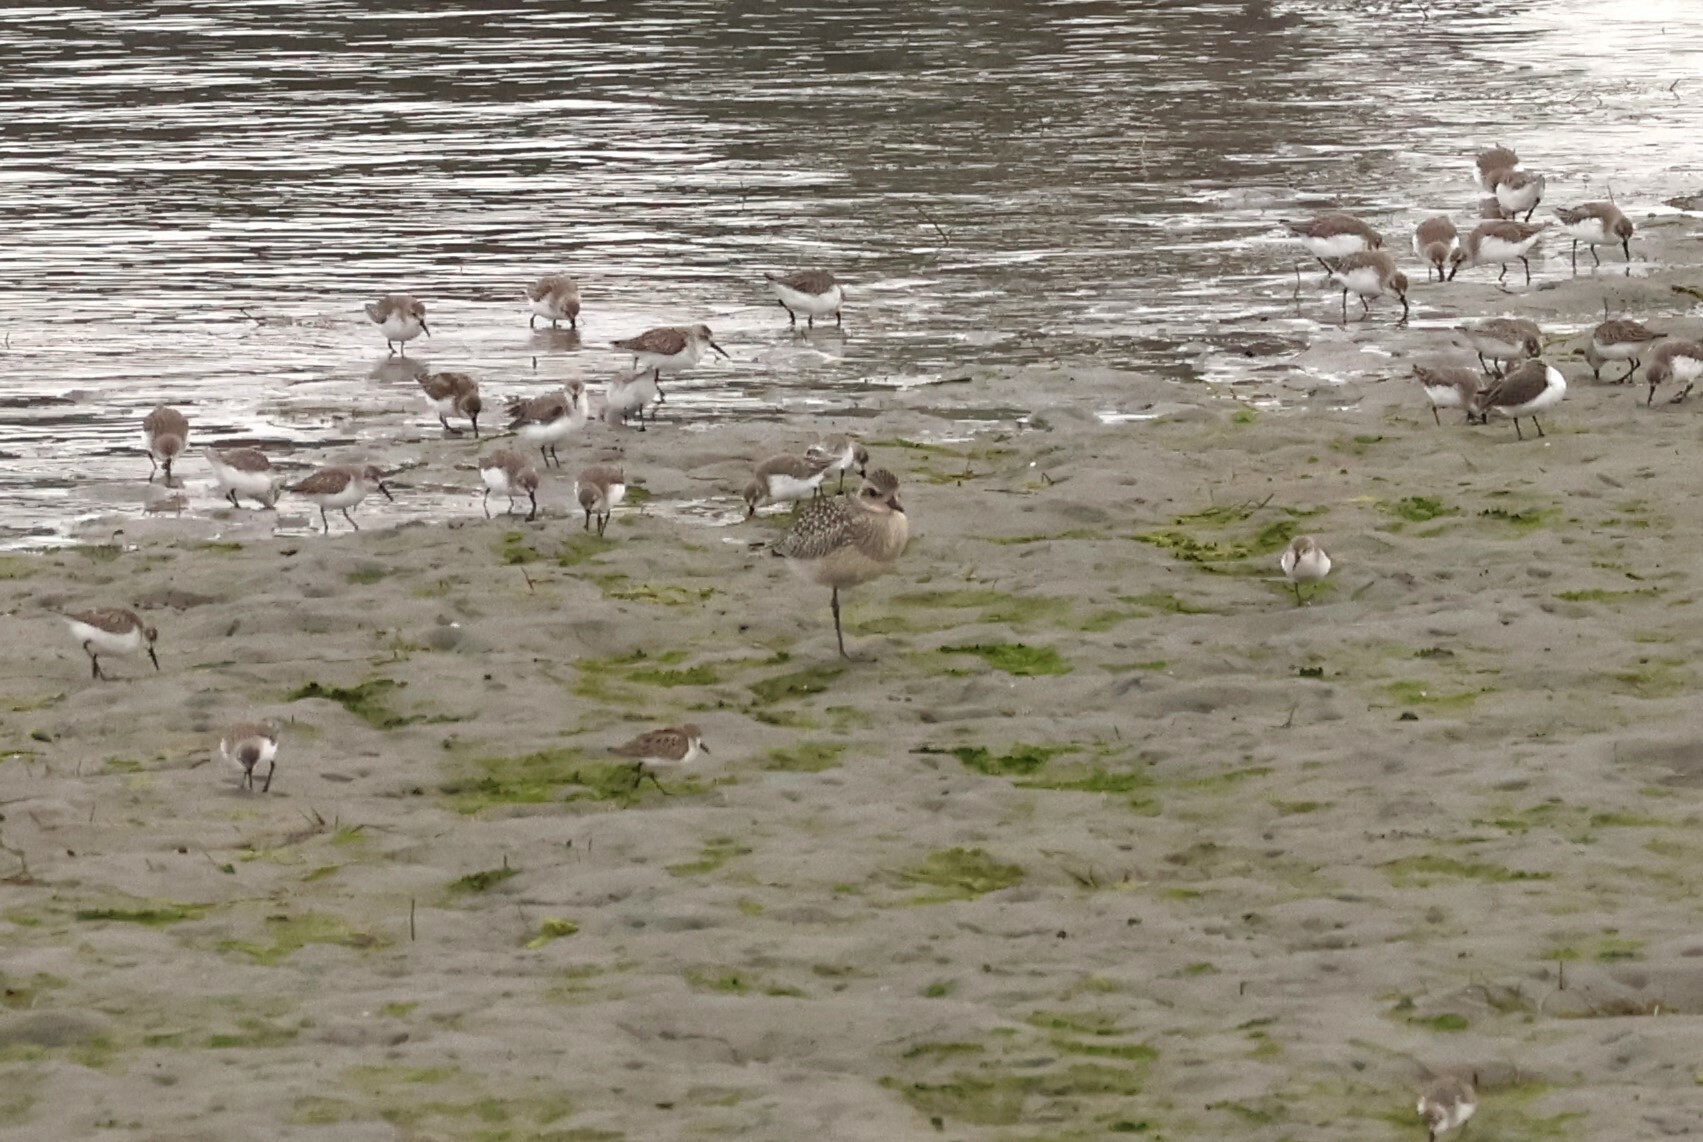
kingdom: Animalia
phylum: Chordata
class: Aves
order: Charadriiformes
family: Charadriidae
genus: Pluvialis
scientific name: Pluvialis squatarola
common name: Grey plover
